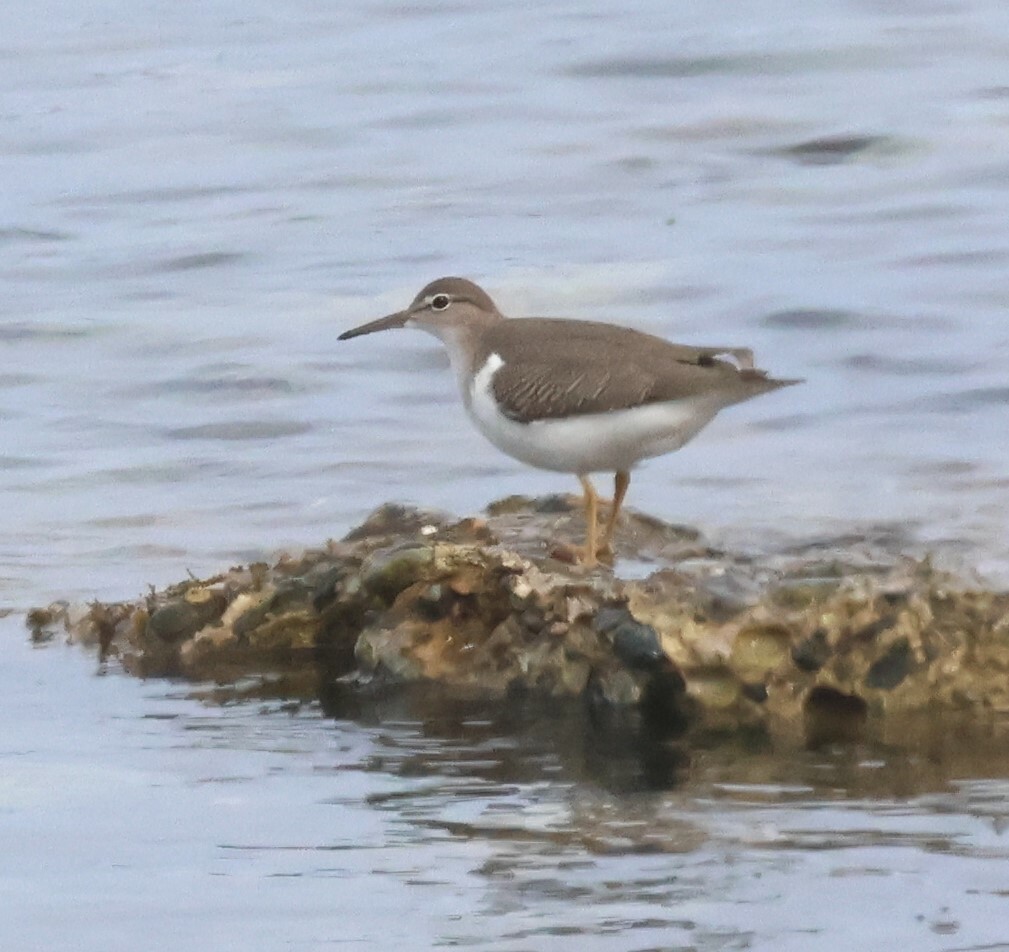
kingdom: Animalia
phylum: Chordata
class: Aves
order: Charadriiformes
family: Scolopacidae
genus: Actitis
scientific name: Actitis macularius
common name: Spotted sandpiper
